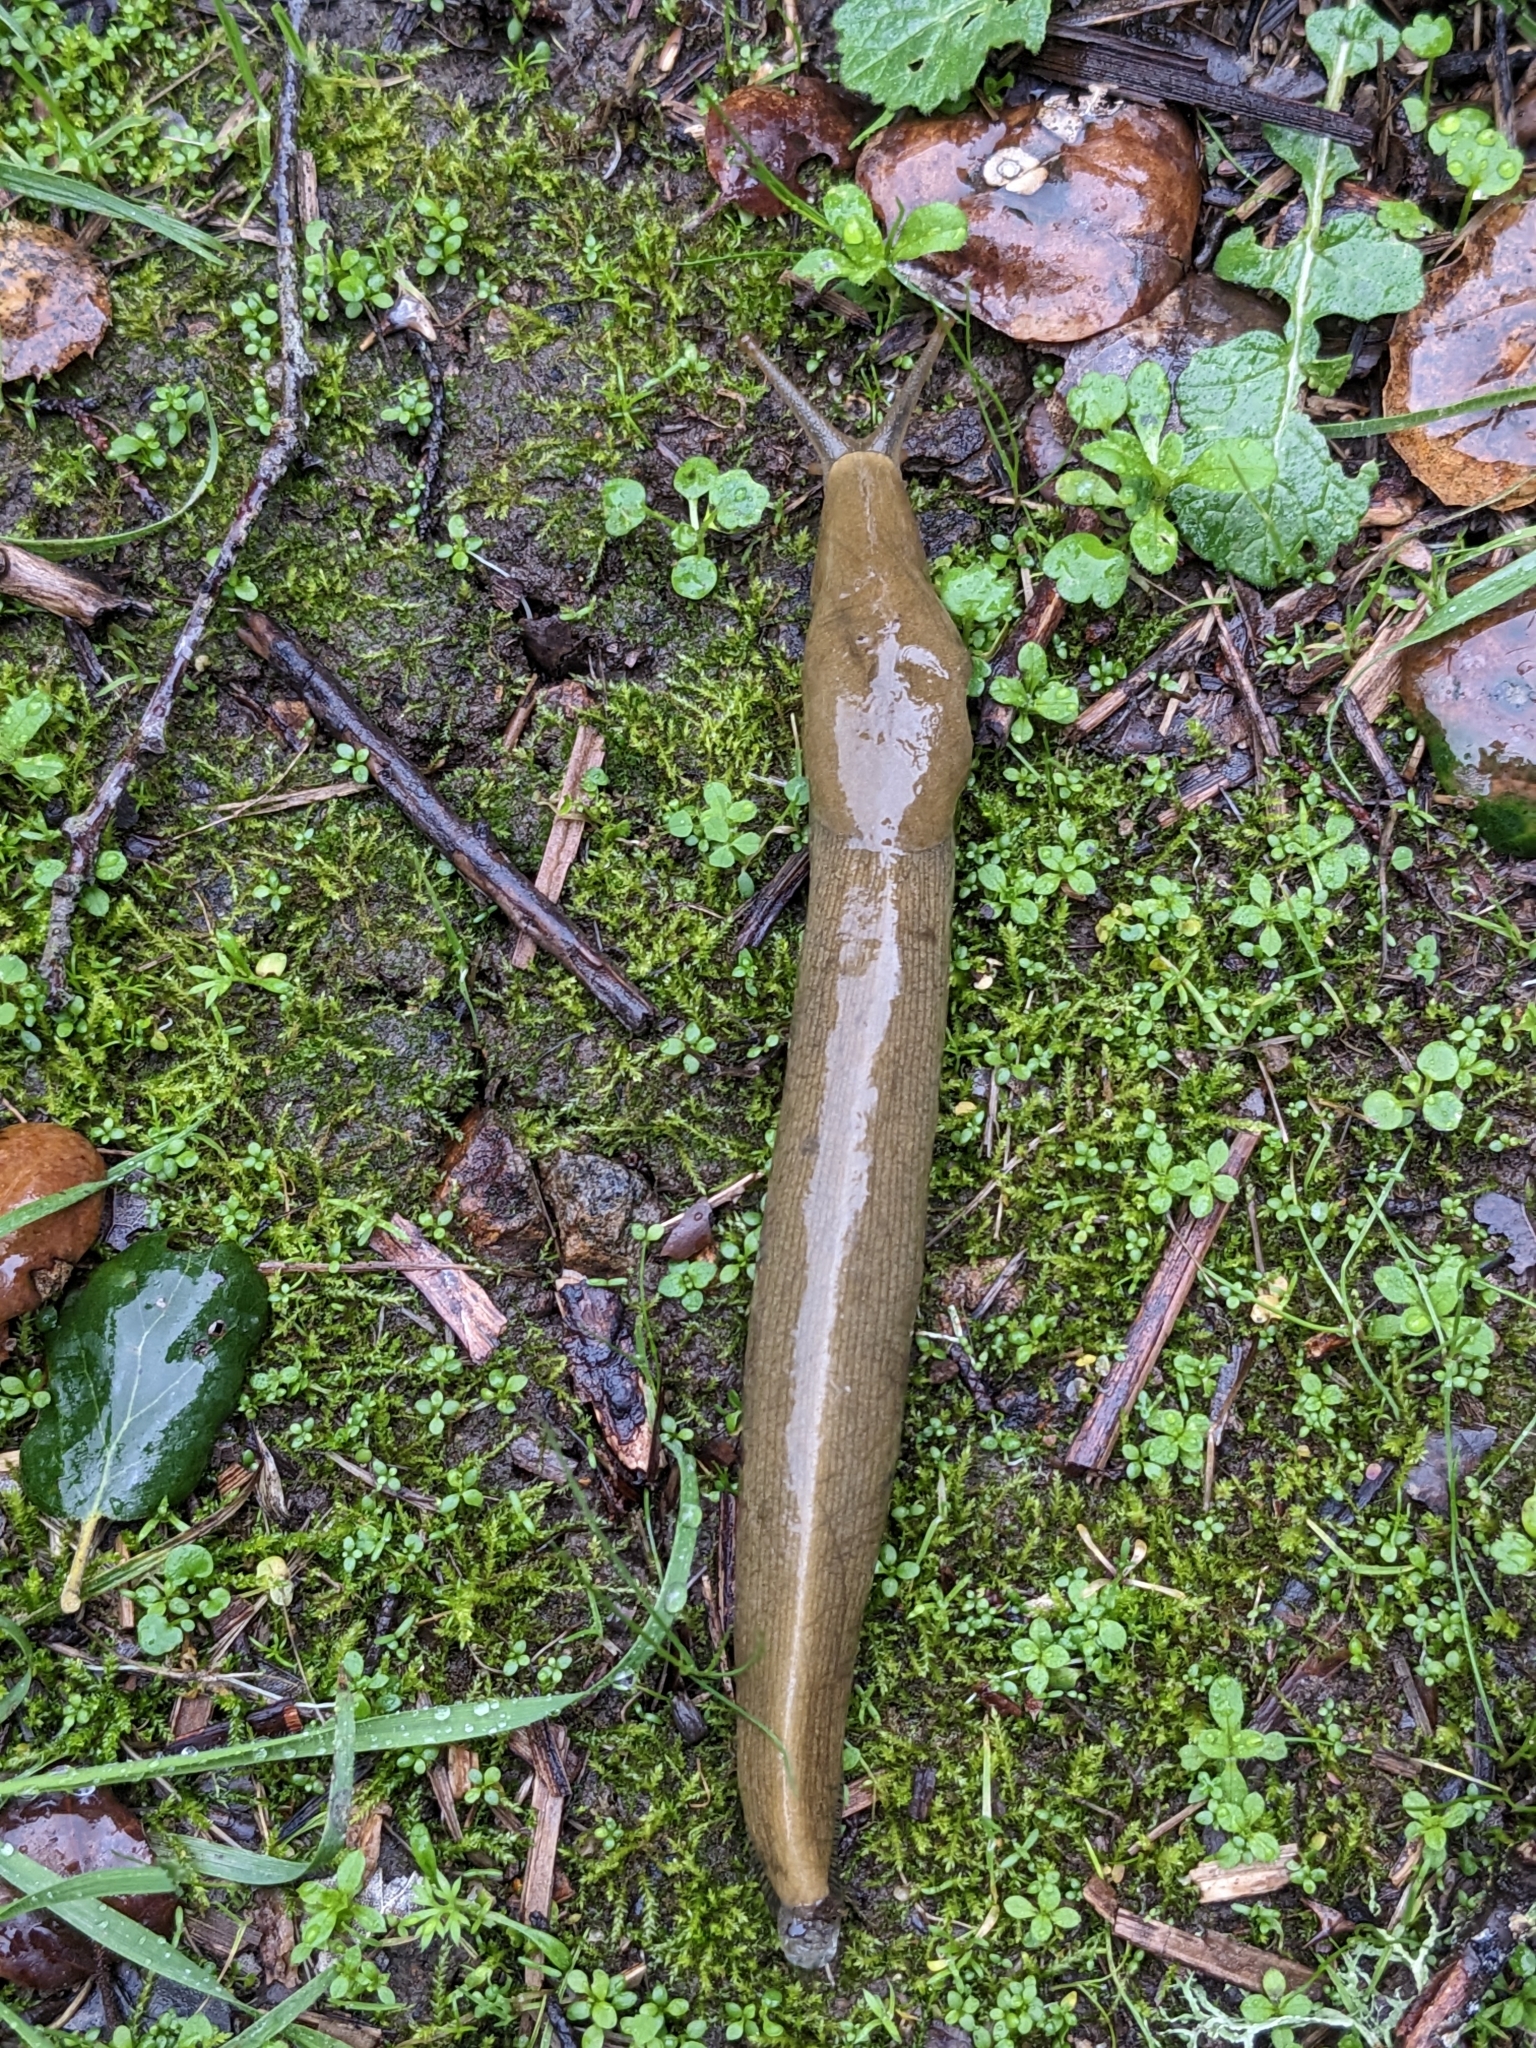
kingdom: Animalia
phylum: Mollusca
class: Gastropoda
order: Stylommatophora
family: Ariolimacidae
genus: Ariolimax
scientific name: Ariolimax buttoni
